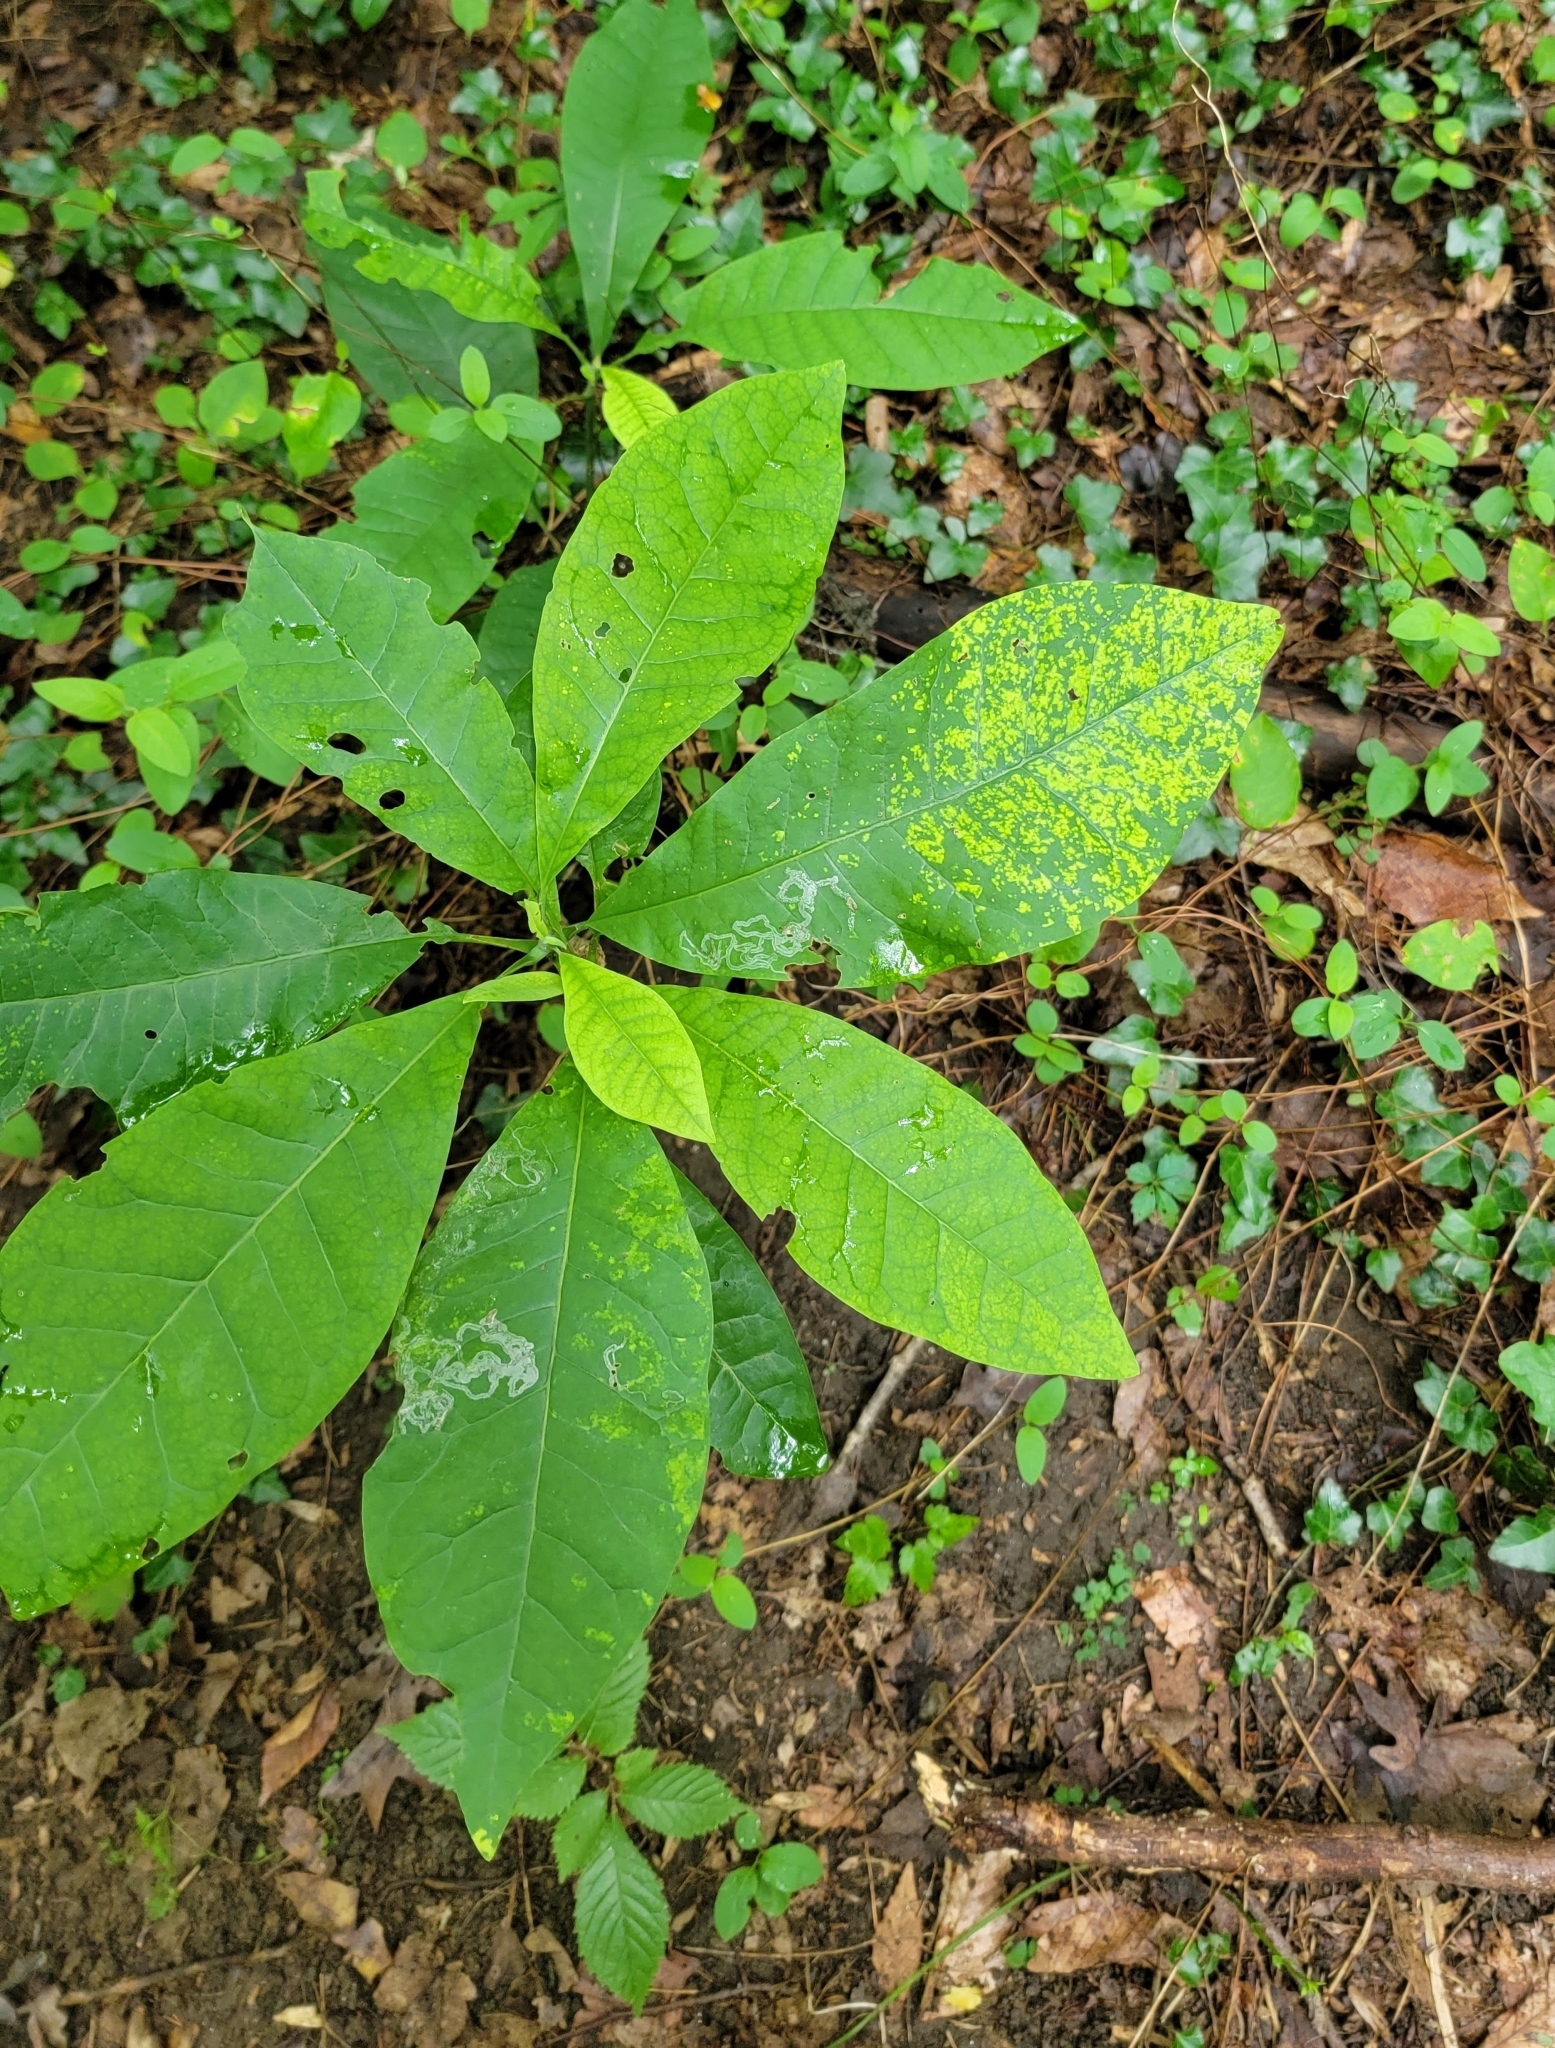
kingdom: Plantae
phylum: Tracheophyta
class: Magnoliopsida
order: Magnoliales
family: Magnoliaceae
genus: Magnolia
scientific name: Magnolia tripetala
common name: Umbrella magnolia
